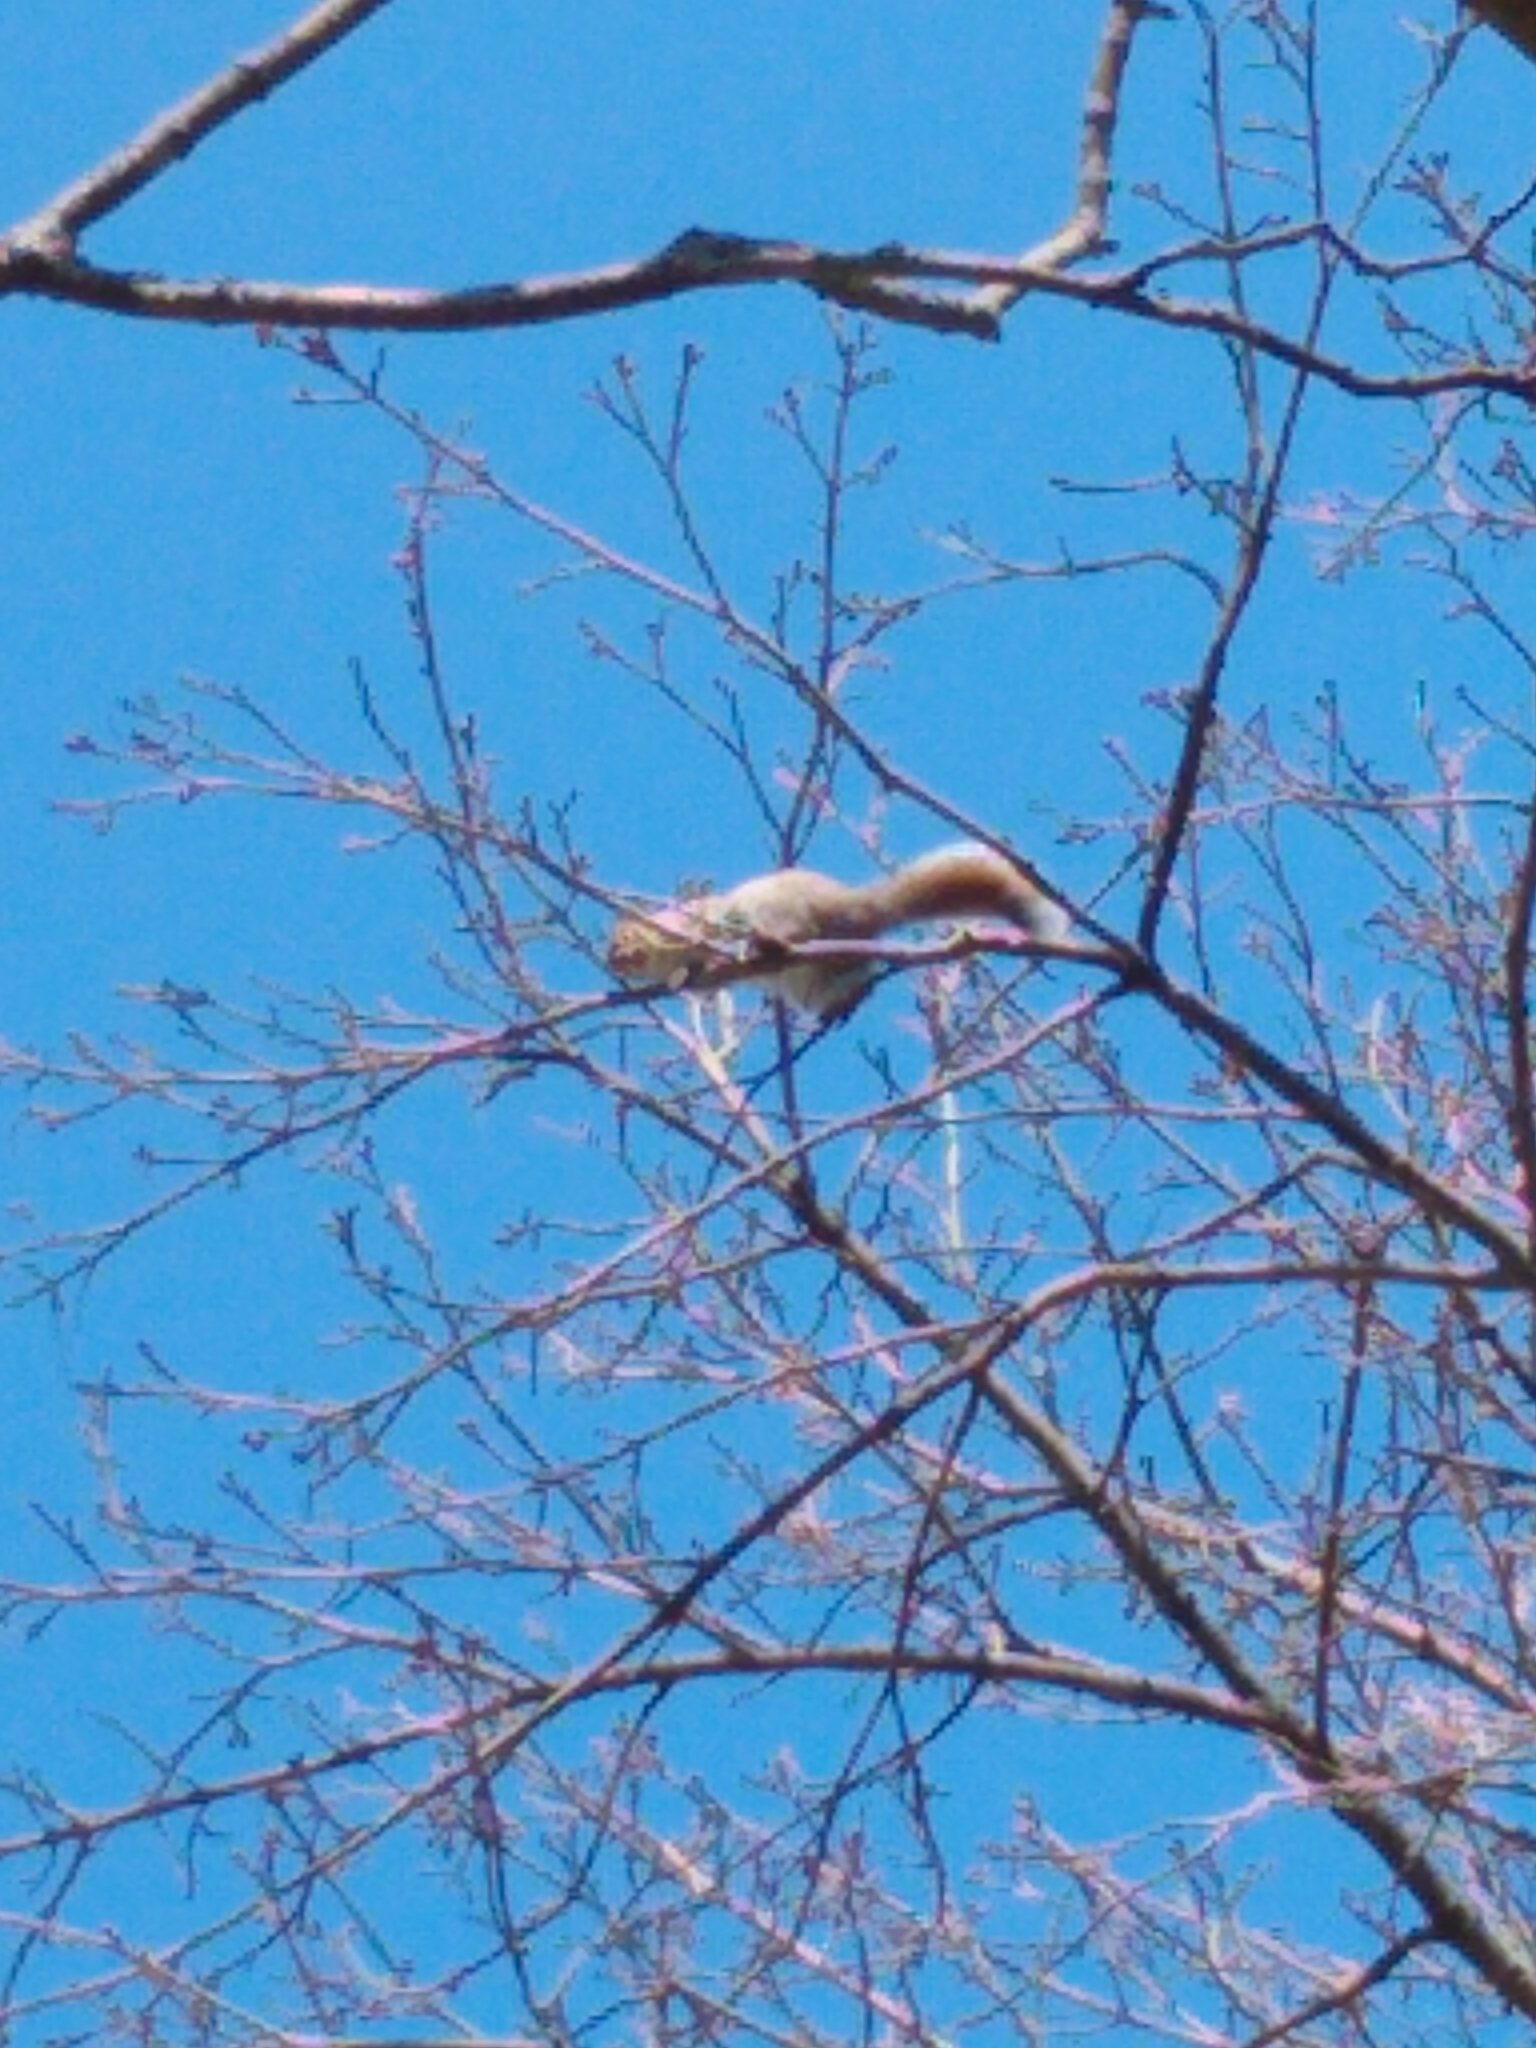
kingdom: Animalia
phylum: Chordata
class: Mammalia
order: Rodentia
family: Sciuridae
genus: Sciurus
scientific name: Sciurus carolinensis
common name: Eastern gray squirrel
